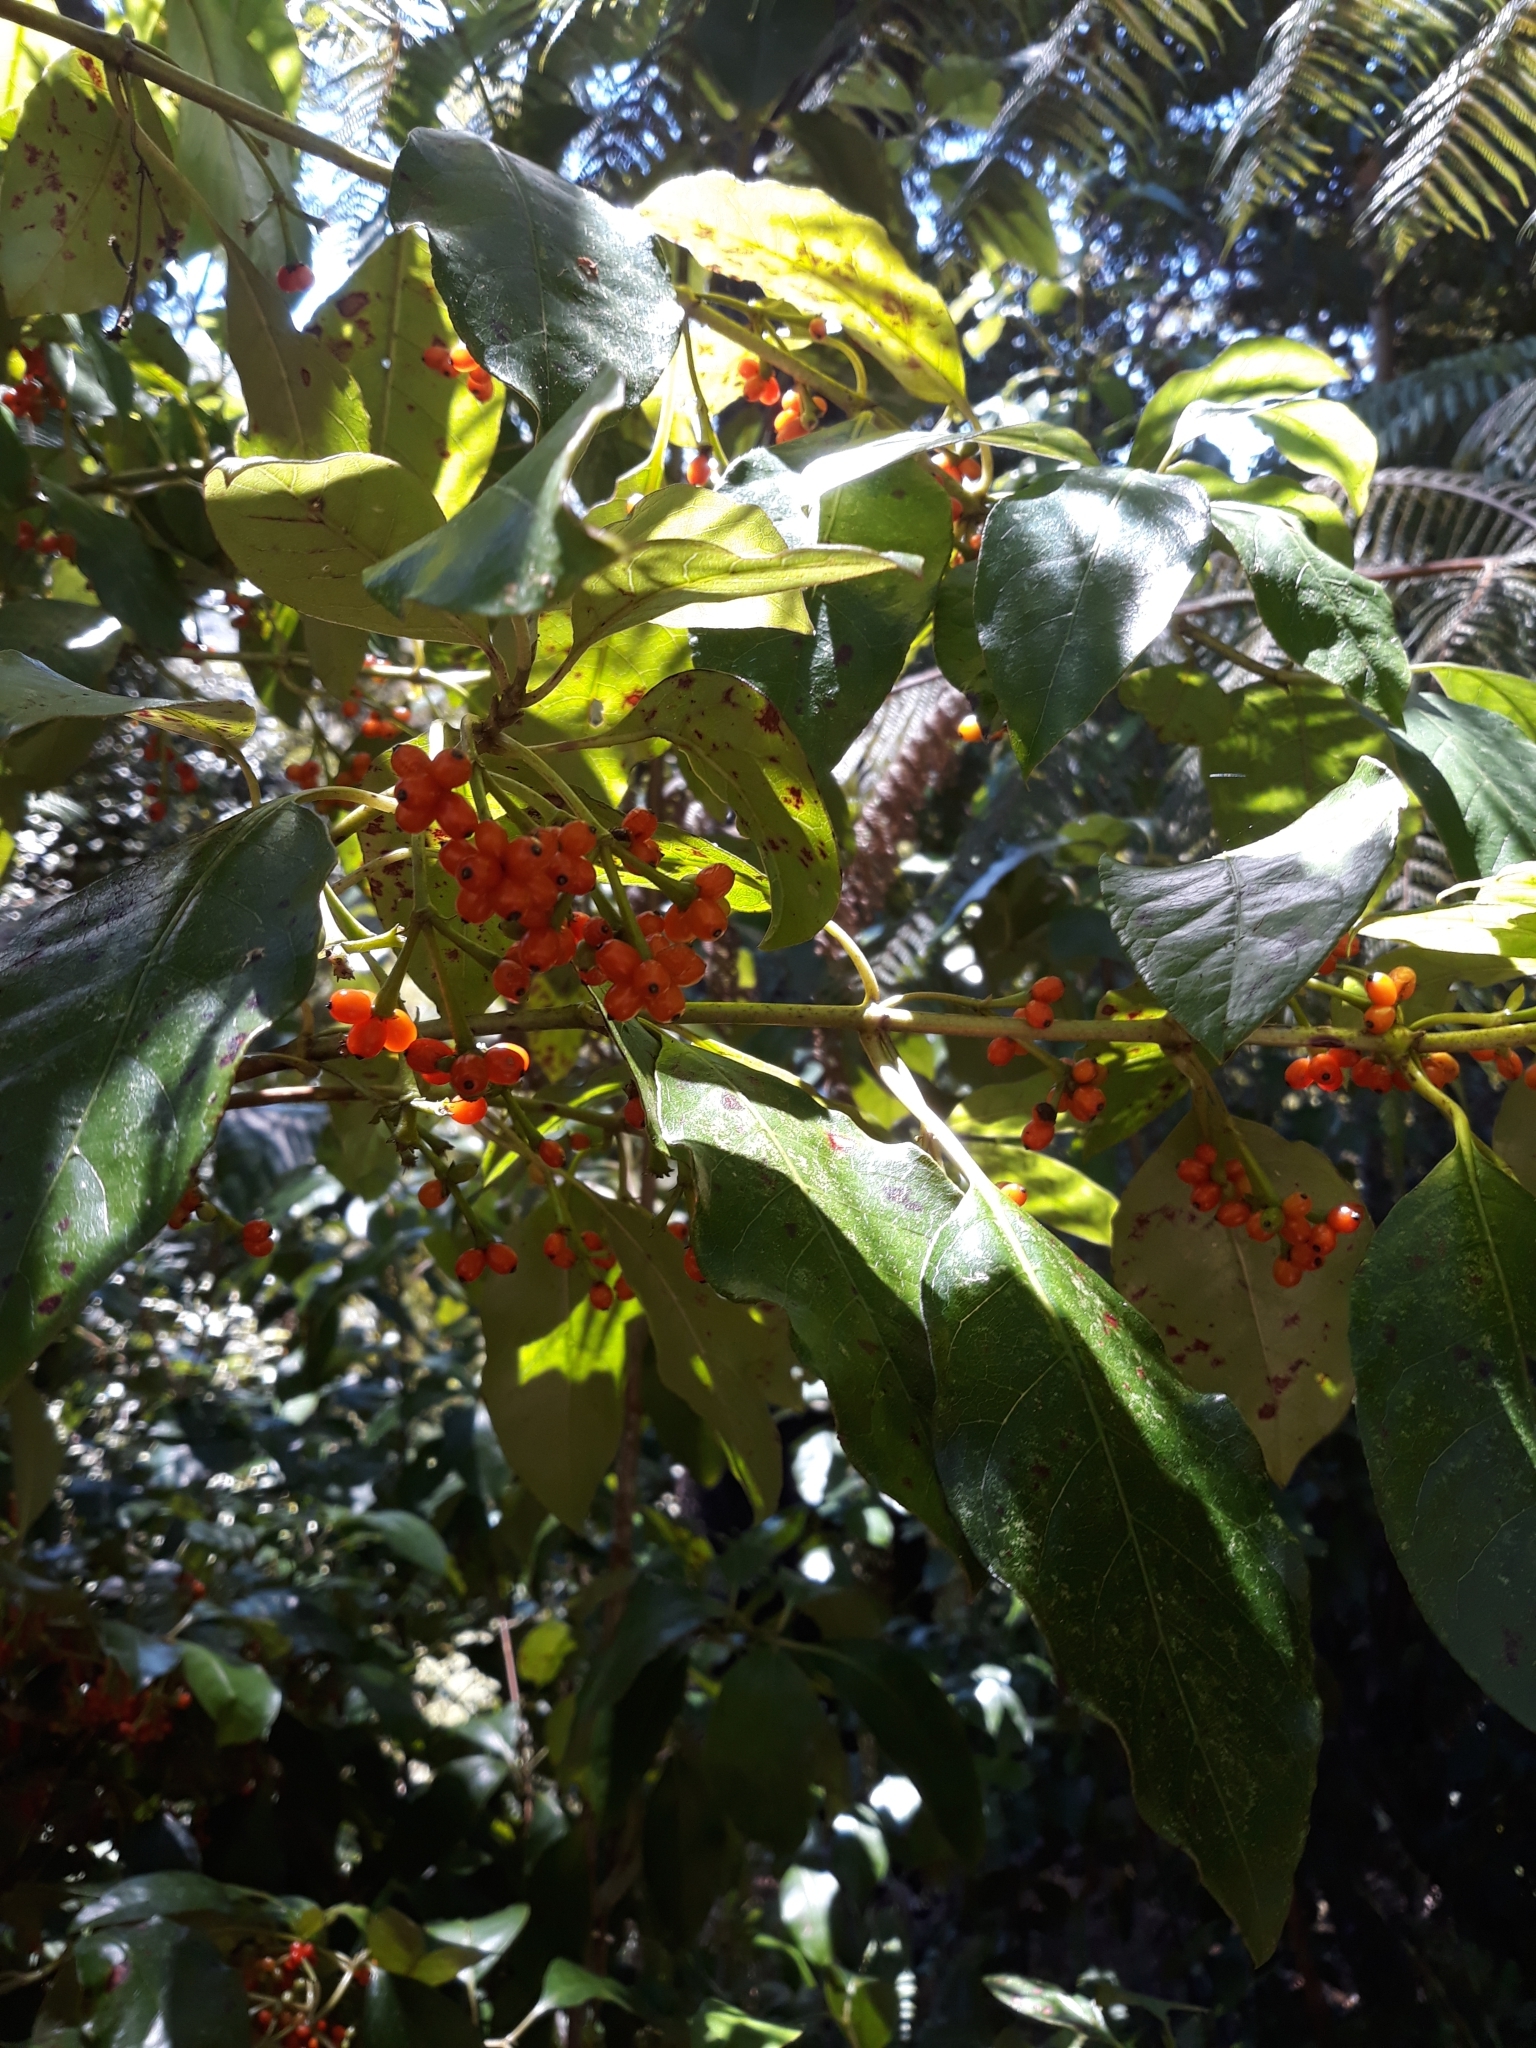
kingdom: Plantae
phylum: Tracheophyta
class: Magnoliopsida
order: Gentianales
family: Rubiaceae
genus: Coprosma
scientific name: Coprosma autumnalis
